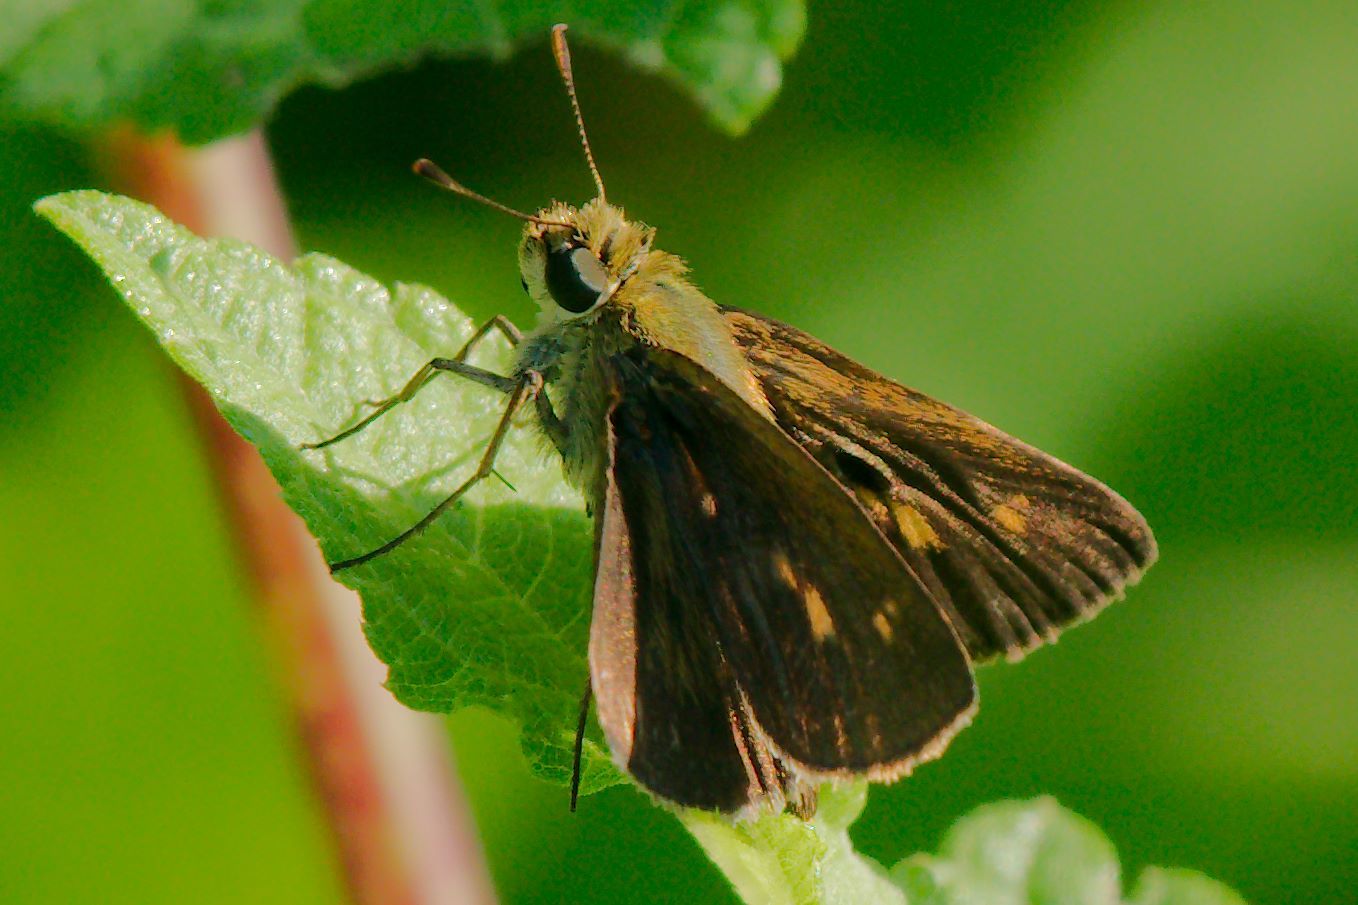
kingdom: Animalia
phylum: Arthropoda
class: Insecta
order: Lepidoptera
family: Hesperiidae
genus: Polites
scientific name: Polites otho
